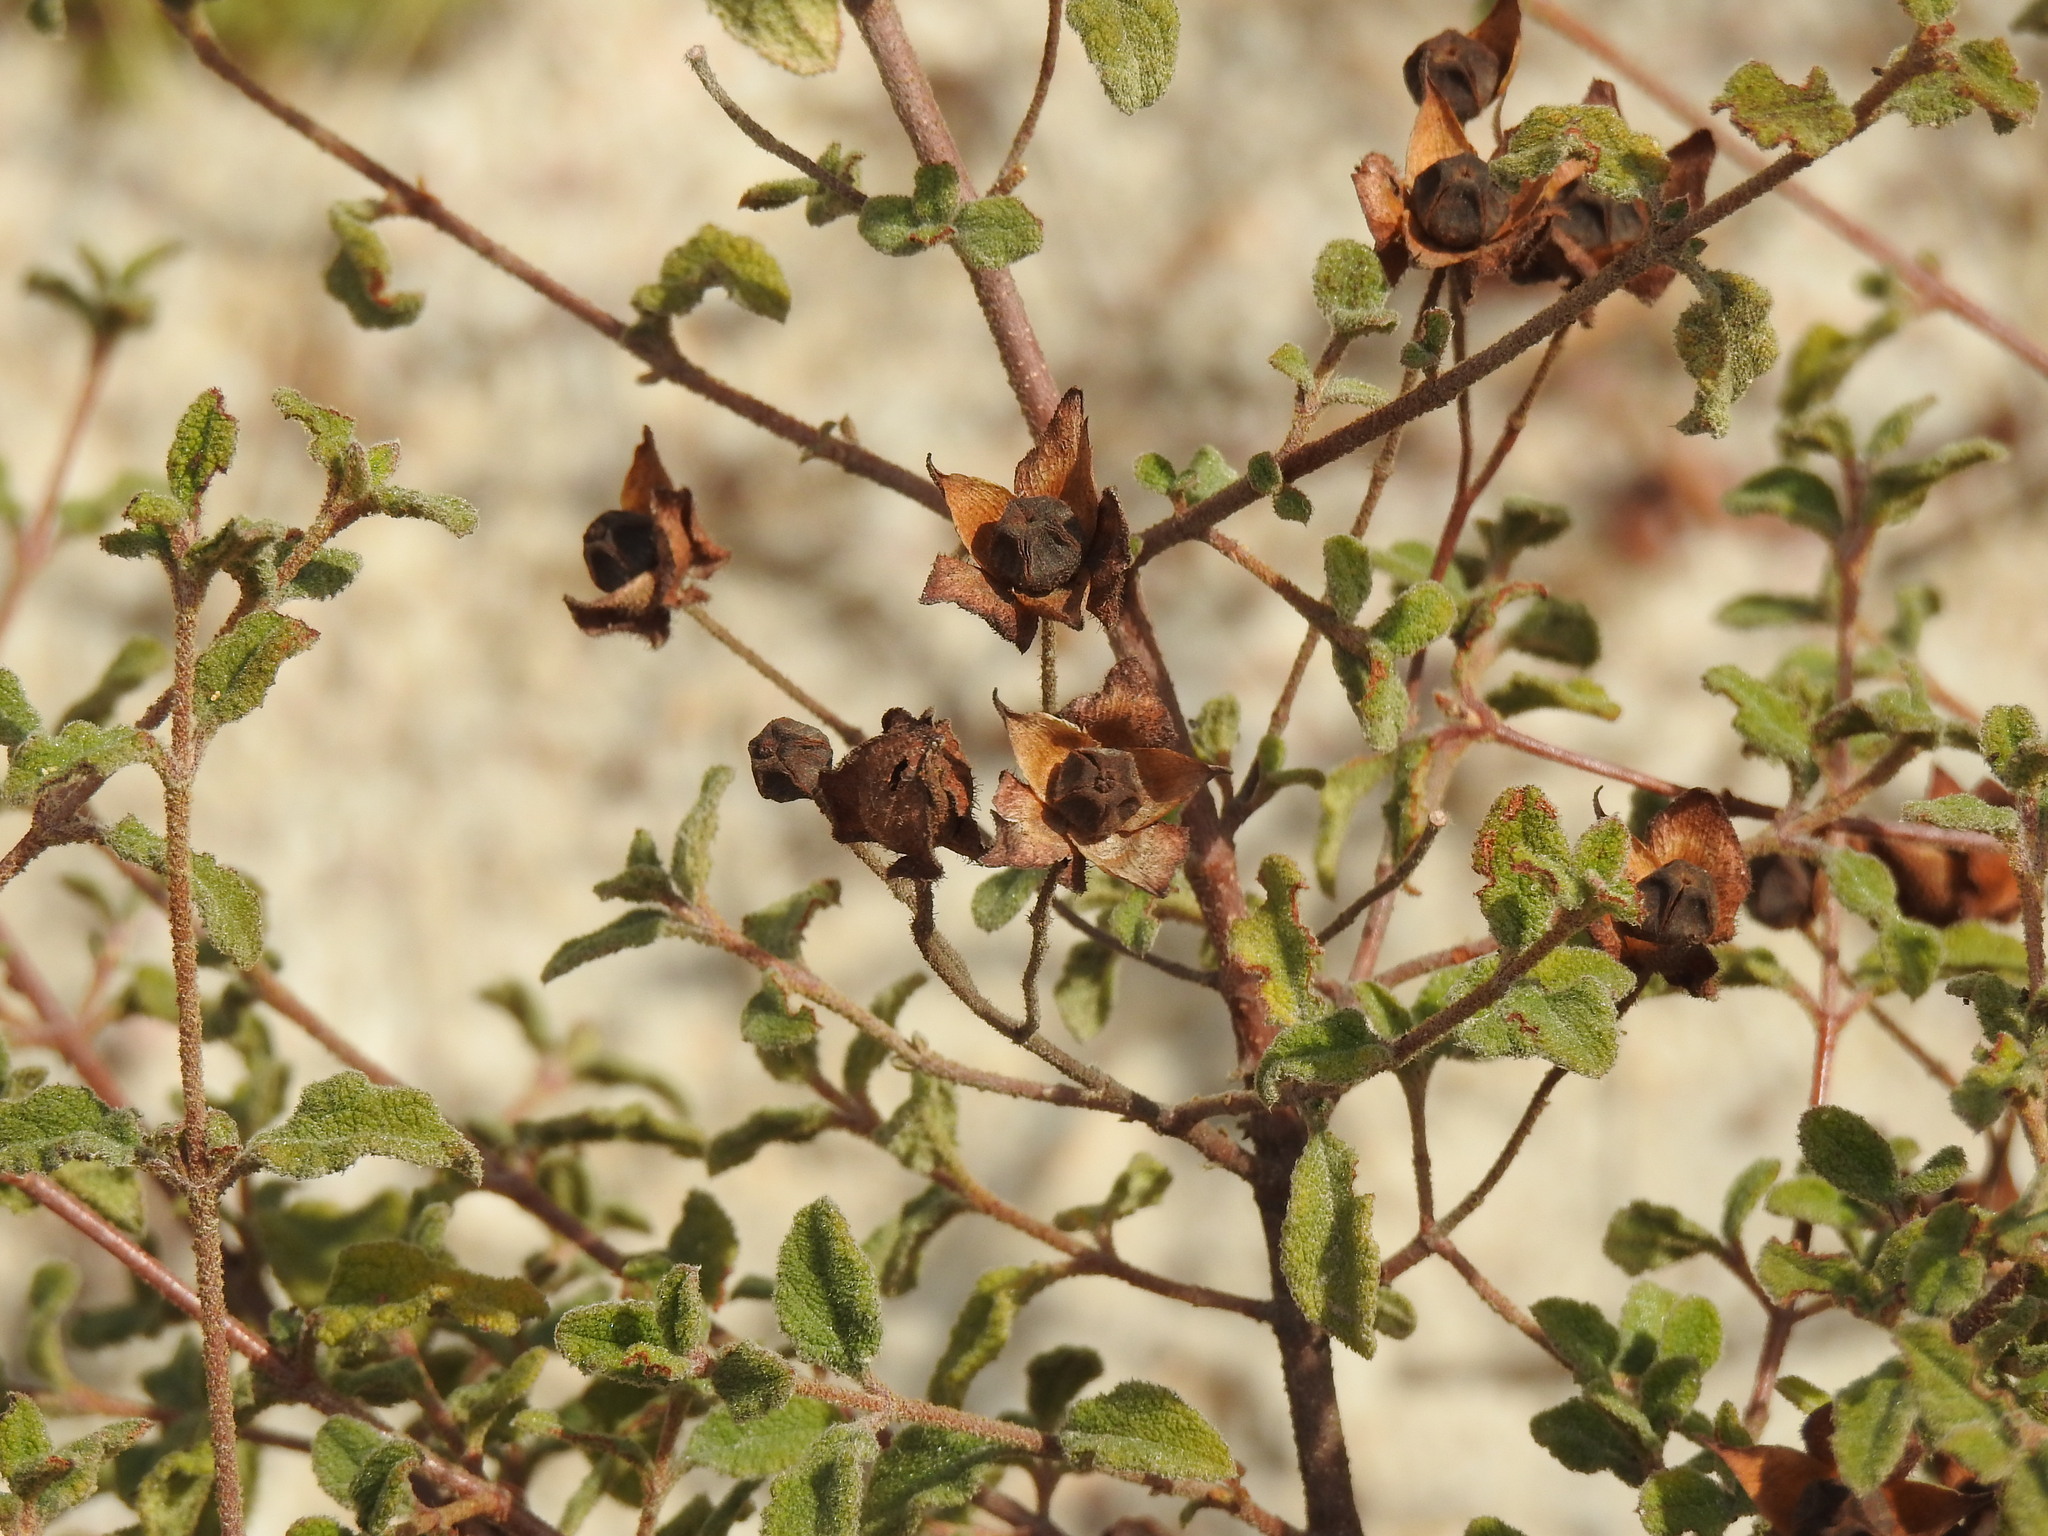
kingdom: Plantae
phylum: Tracheophyta
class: Magnoliopsida
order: Malvales
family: Cistaceae
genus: Cistus
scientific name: Cistus salviifolius
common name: Salvia cistus
